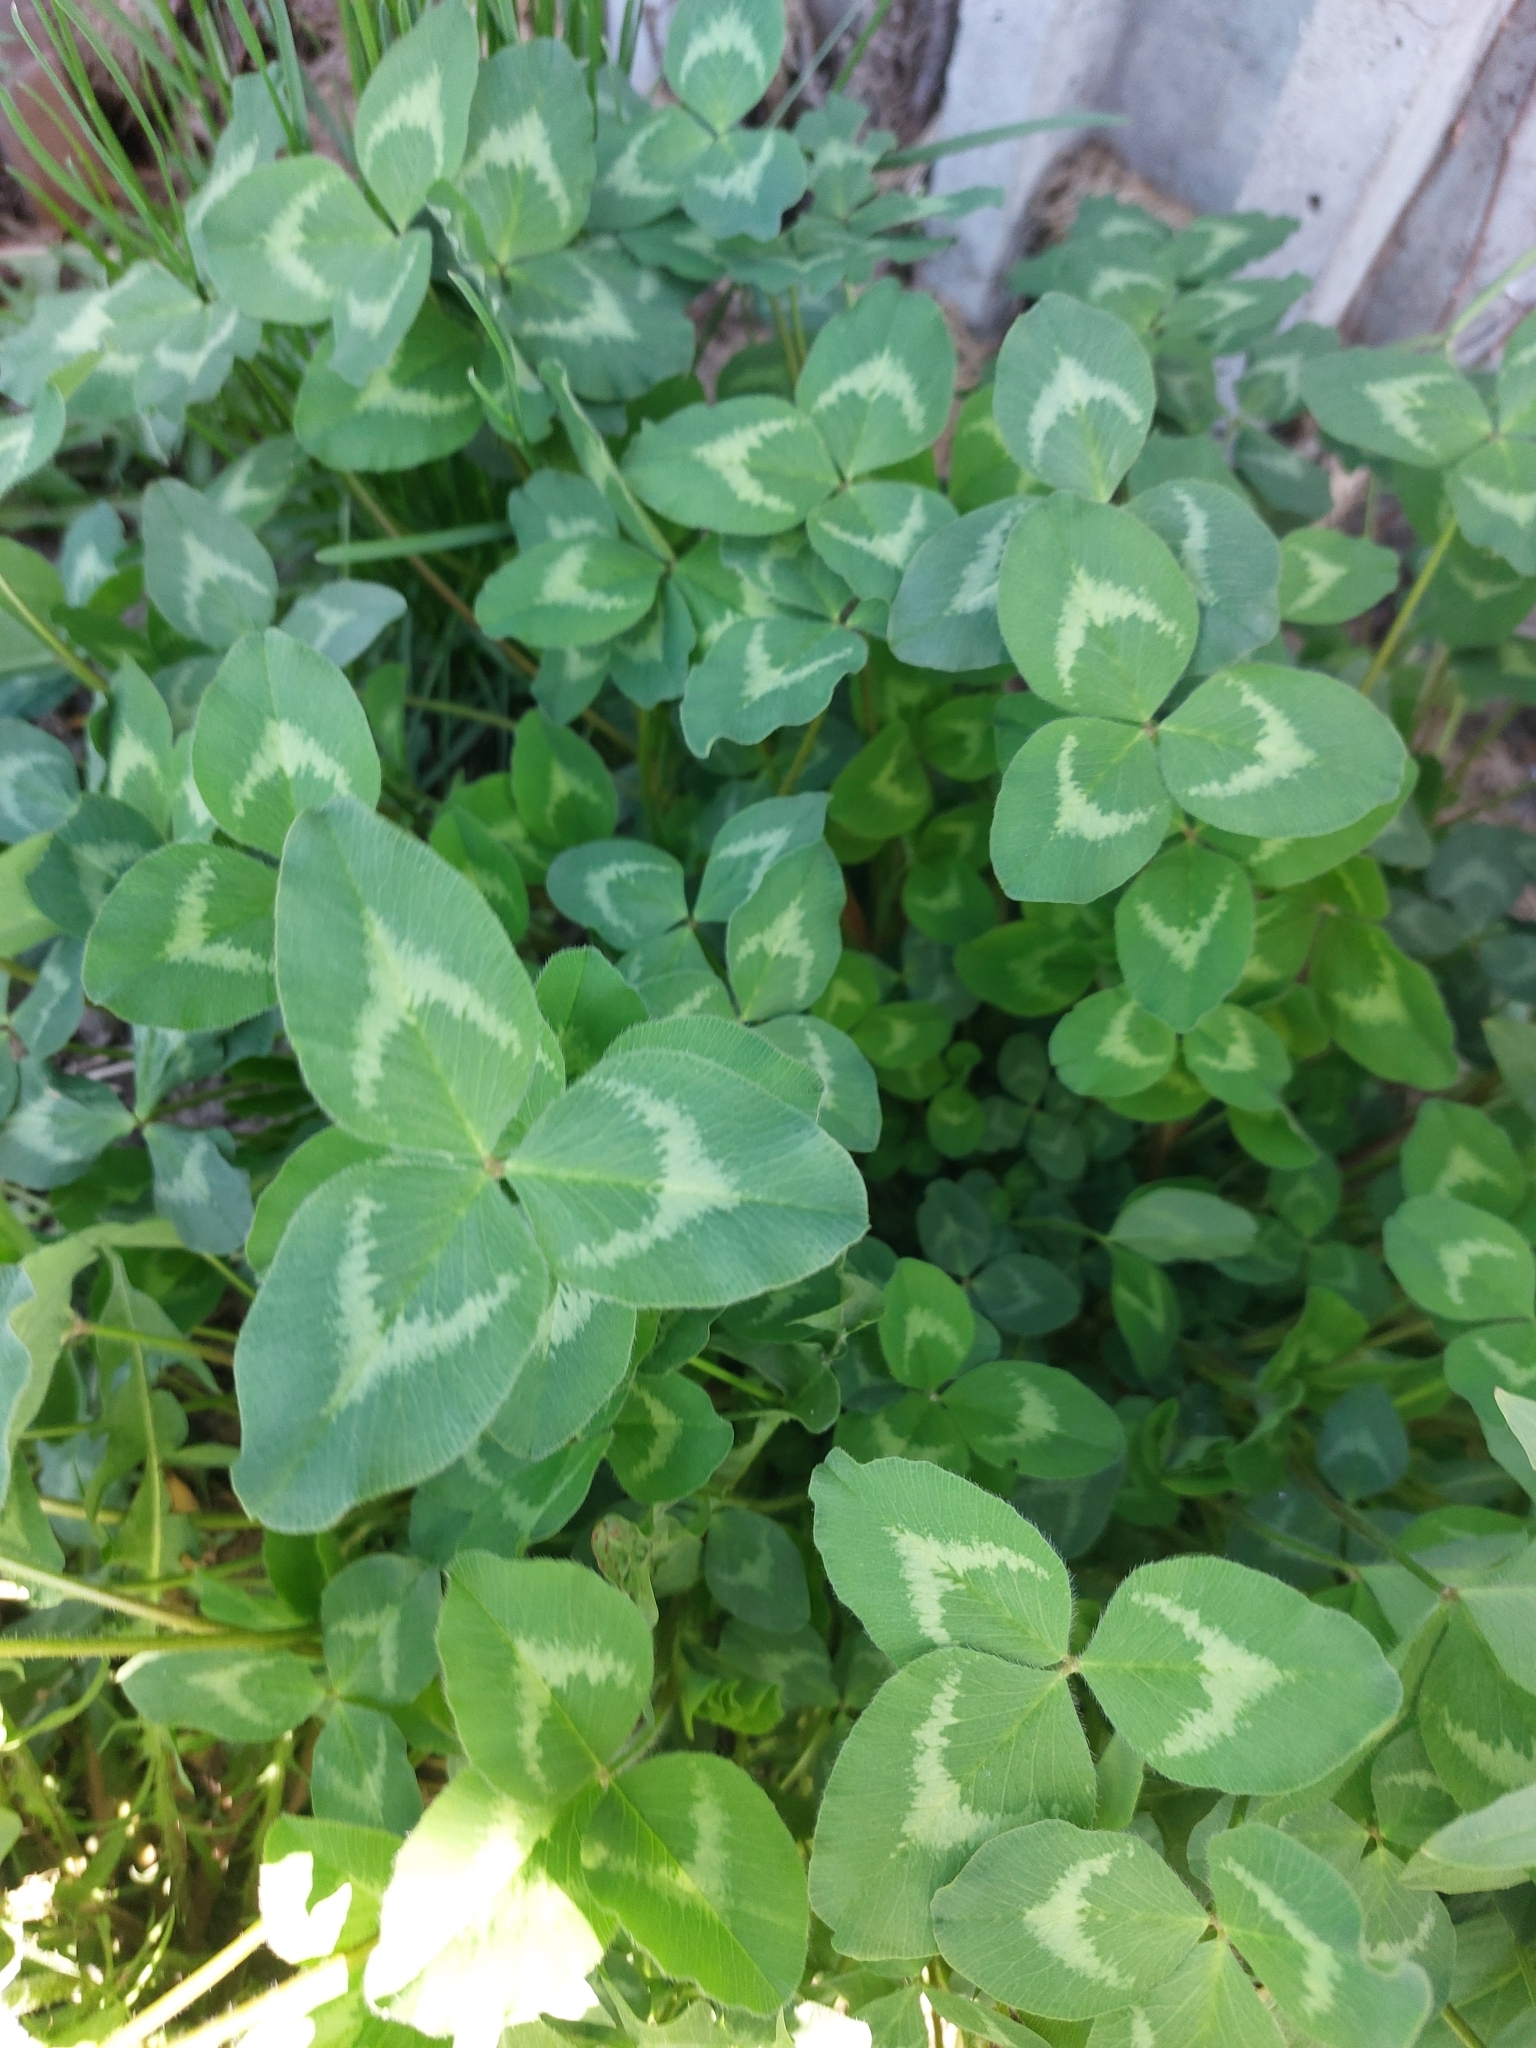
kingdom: Plantae
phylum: Tracheophyta
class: Magnoliopsida
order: Fabales
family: Fabaceae
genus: Trifolium
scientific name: Trifolium pratense
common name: Red clover
